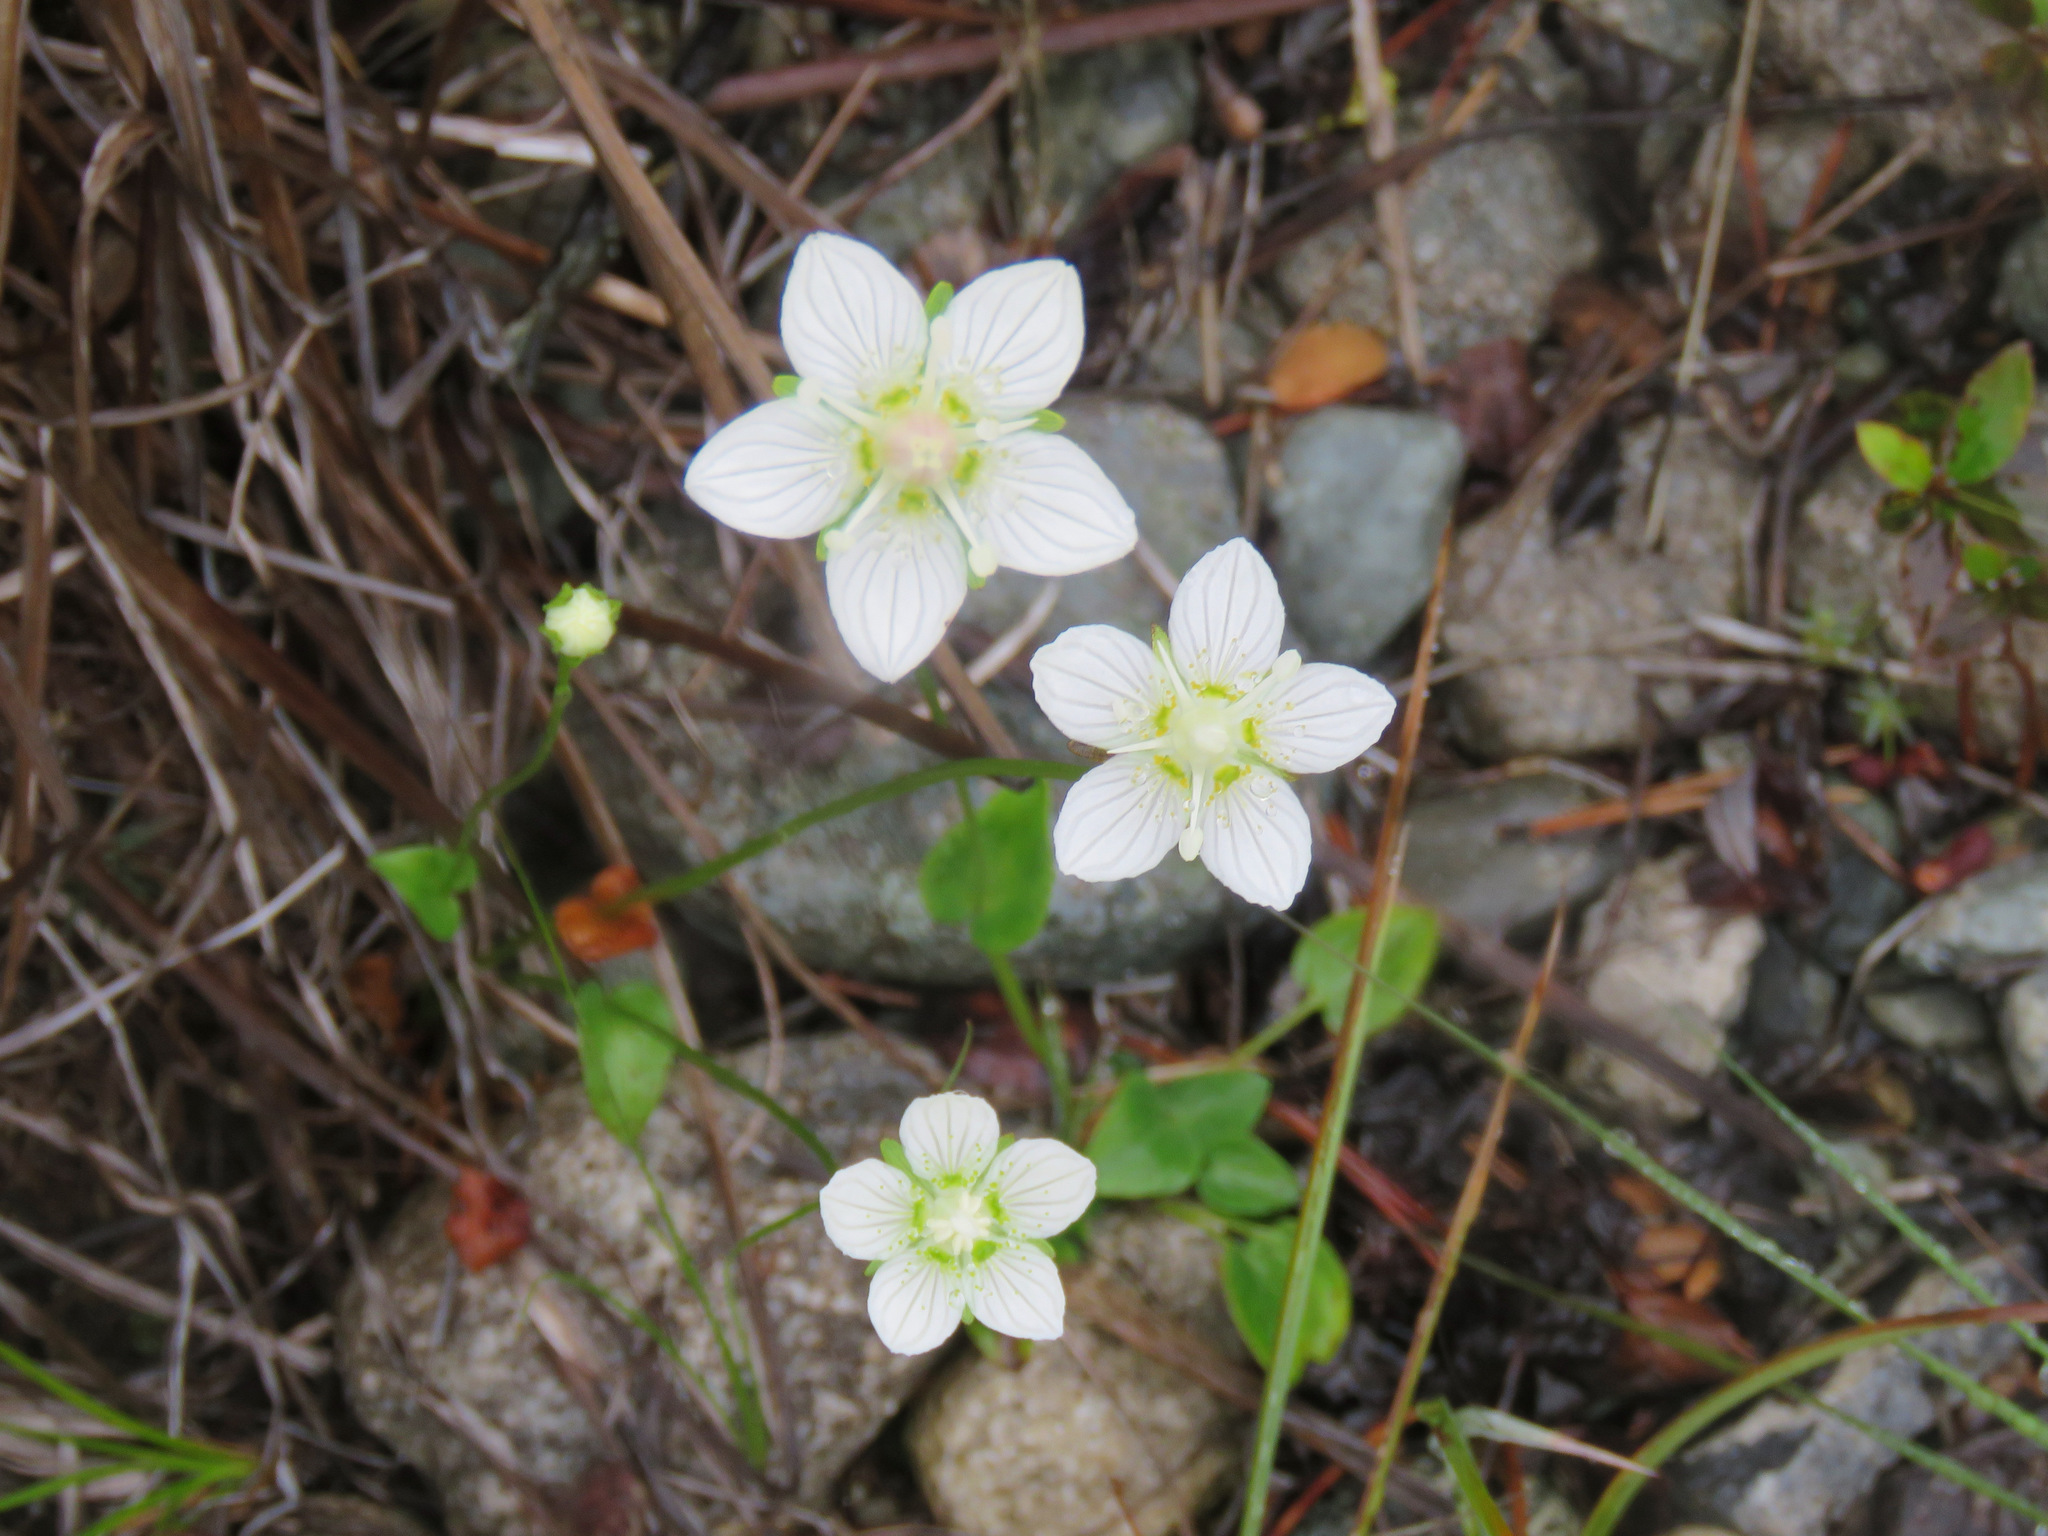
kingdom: Plantae
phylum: Tracheophyta
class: Magnoliopsida
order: Celastrales
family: Parnassiaceae
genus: Parnassia
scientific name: Parnassia palustris
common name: Grass-of-parnassus
